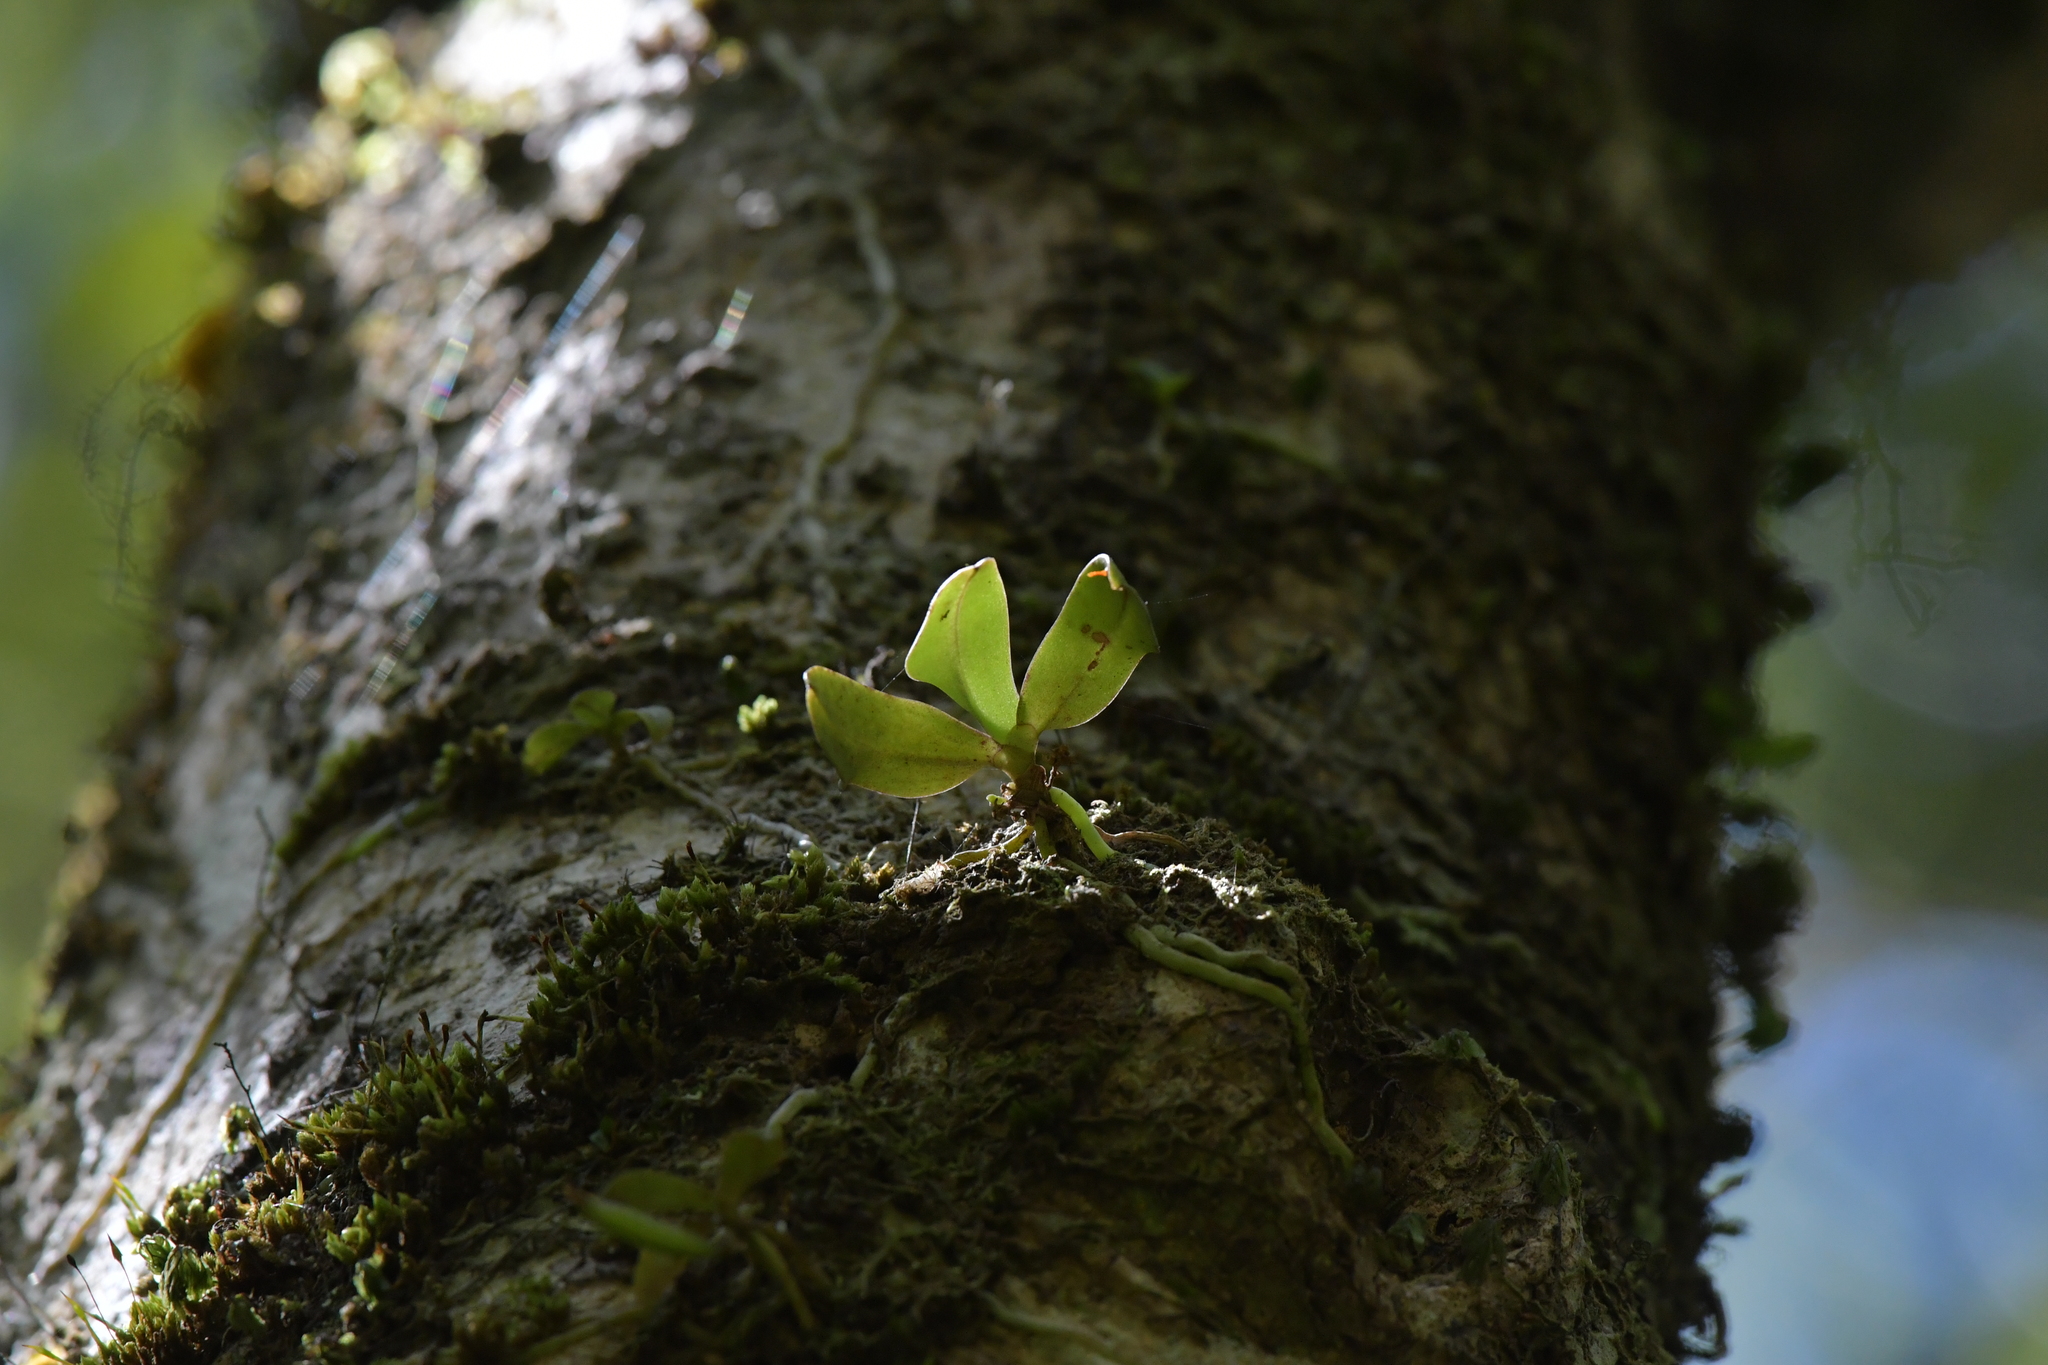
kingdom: Plantae
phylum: Tracheophyta
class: Liliopsida
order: Asparagales
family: Orchidaceae
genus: Drymoanthus
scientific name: Drymoanthus adversus
